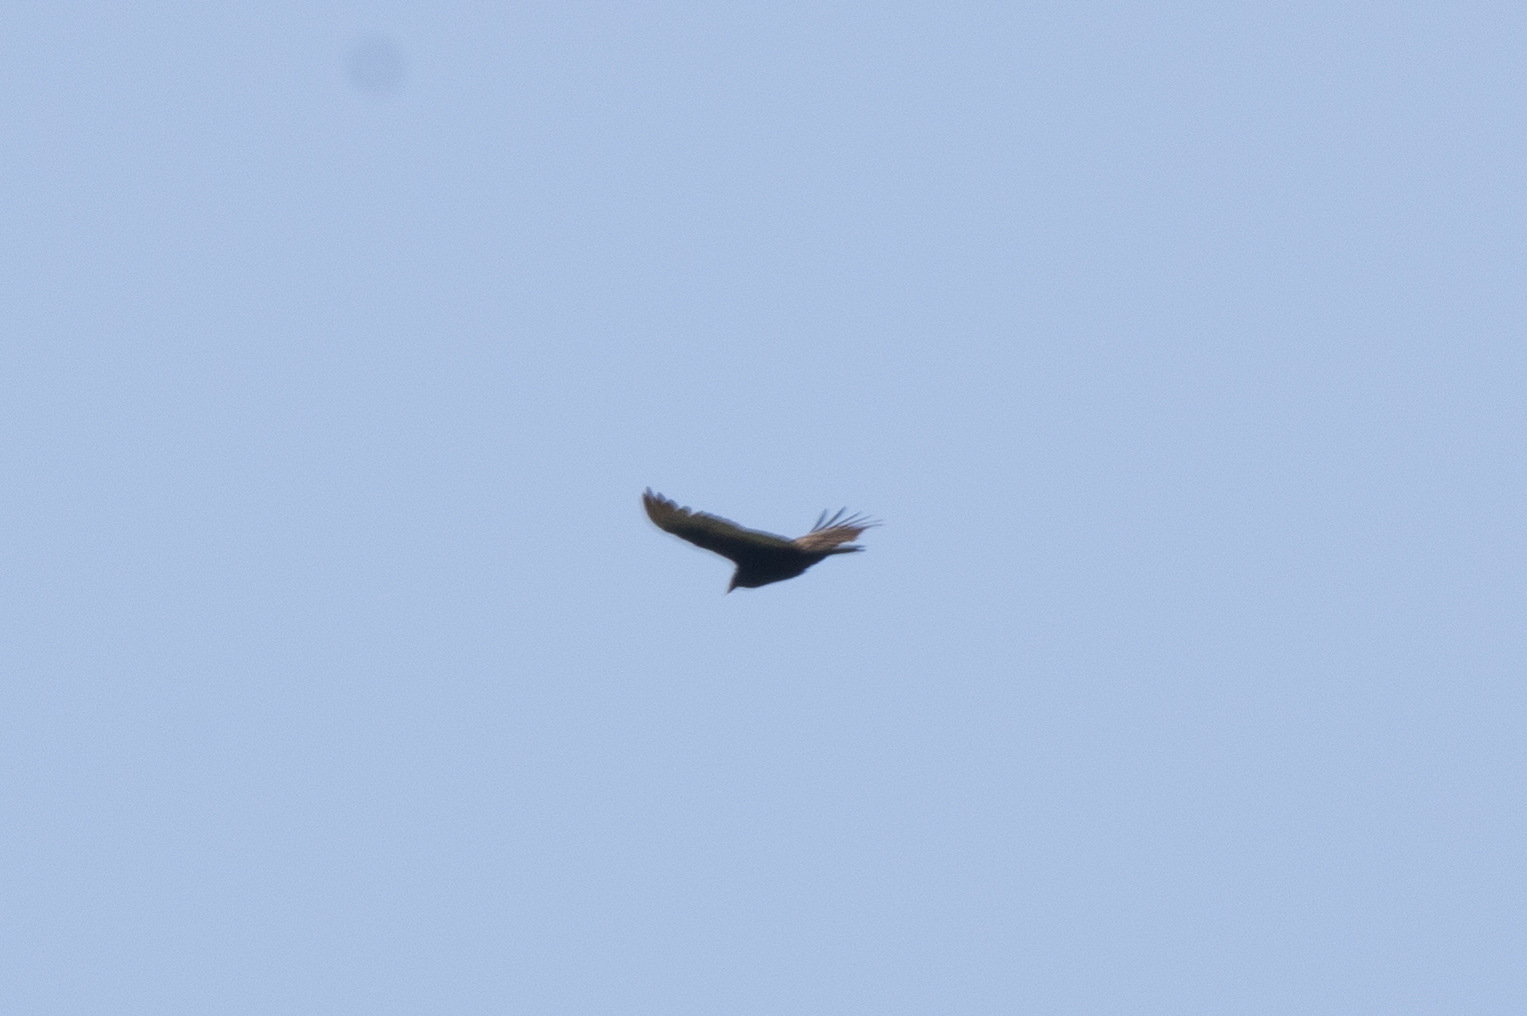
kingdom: Animalia
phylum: Chordata
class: Aves
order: Accipitriformes
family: Cathartidae
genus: Cathartes
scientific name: Cathartes aura
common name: Turkey vulture
